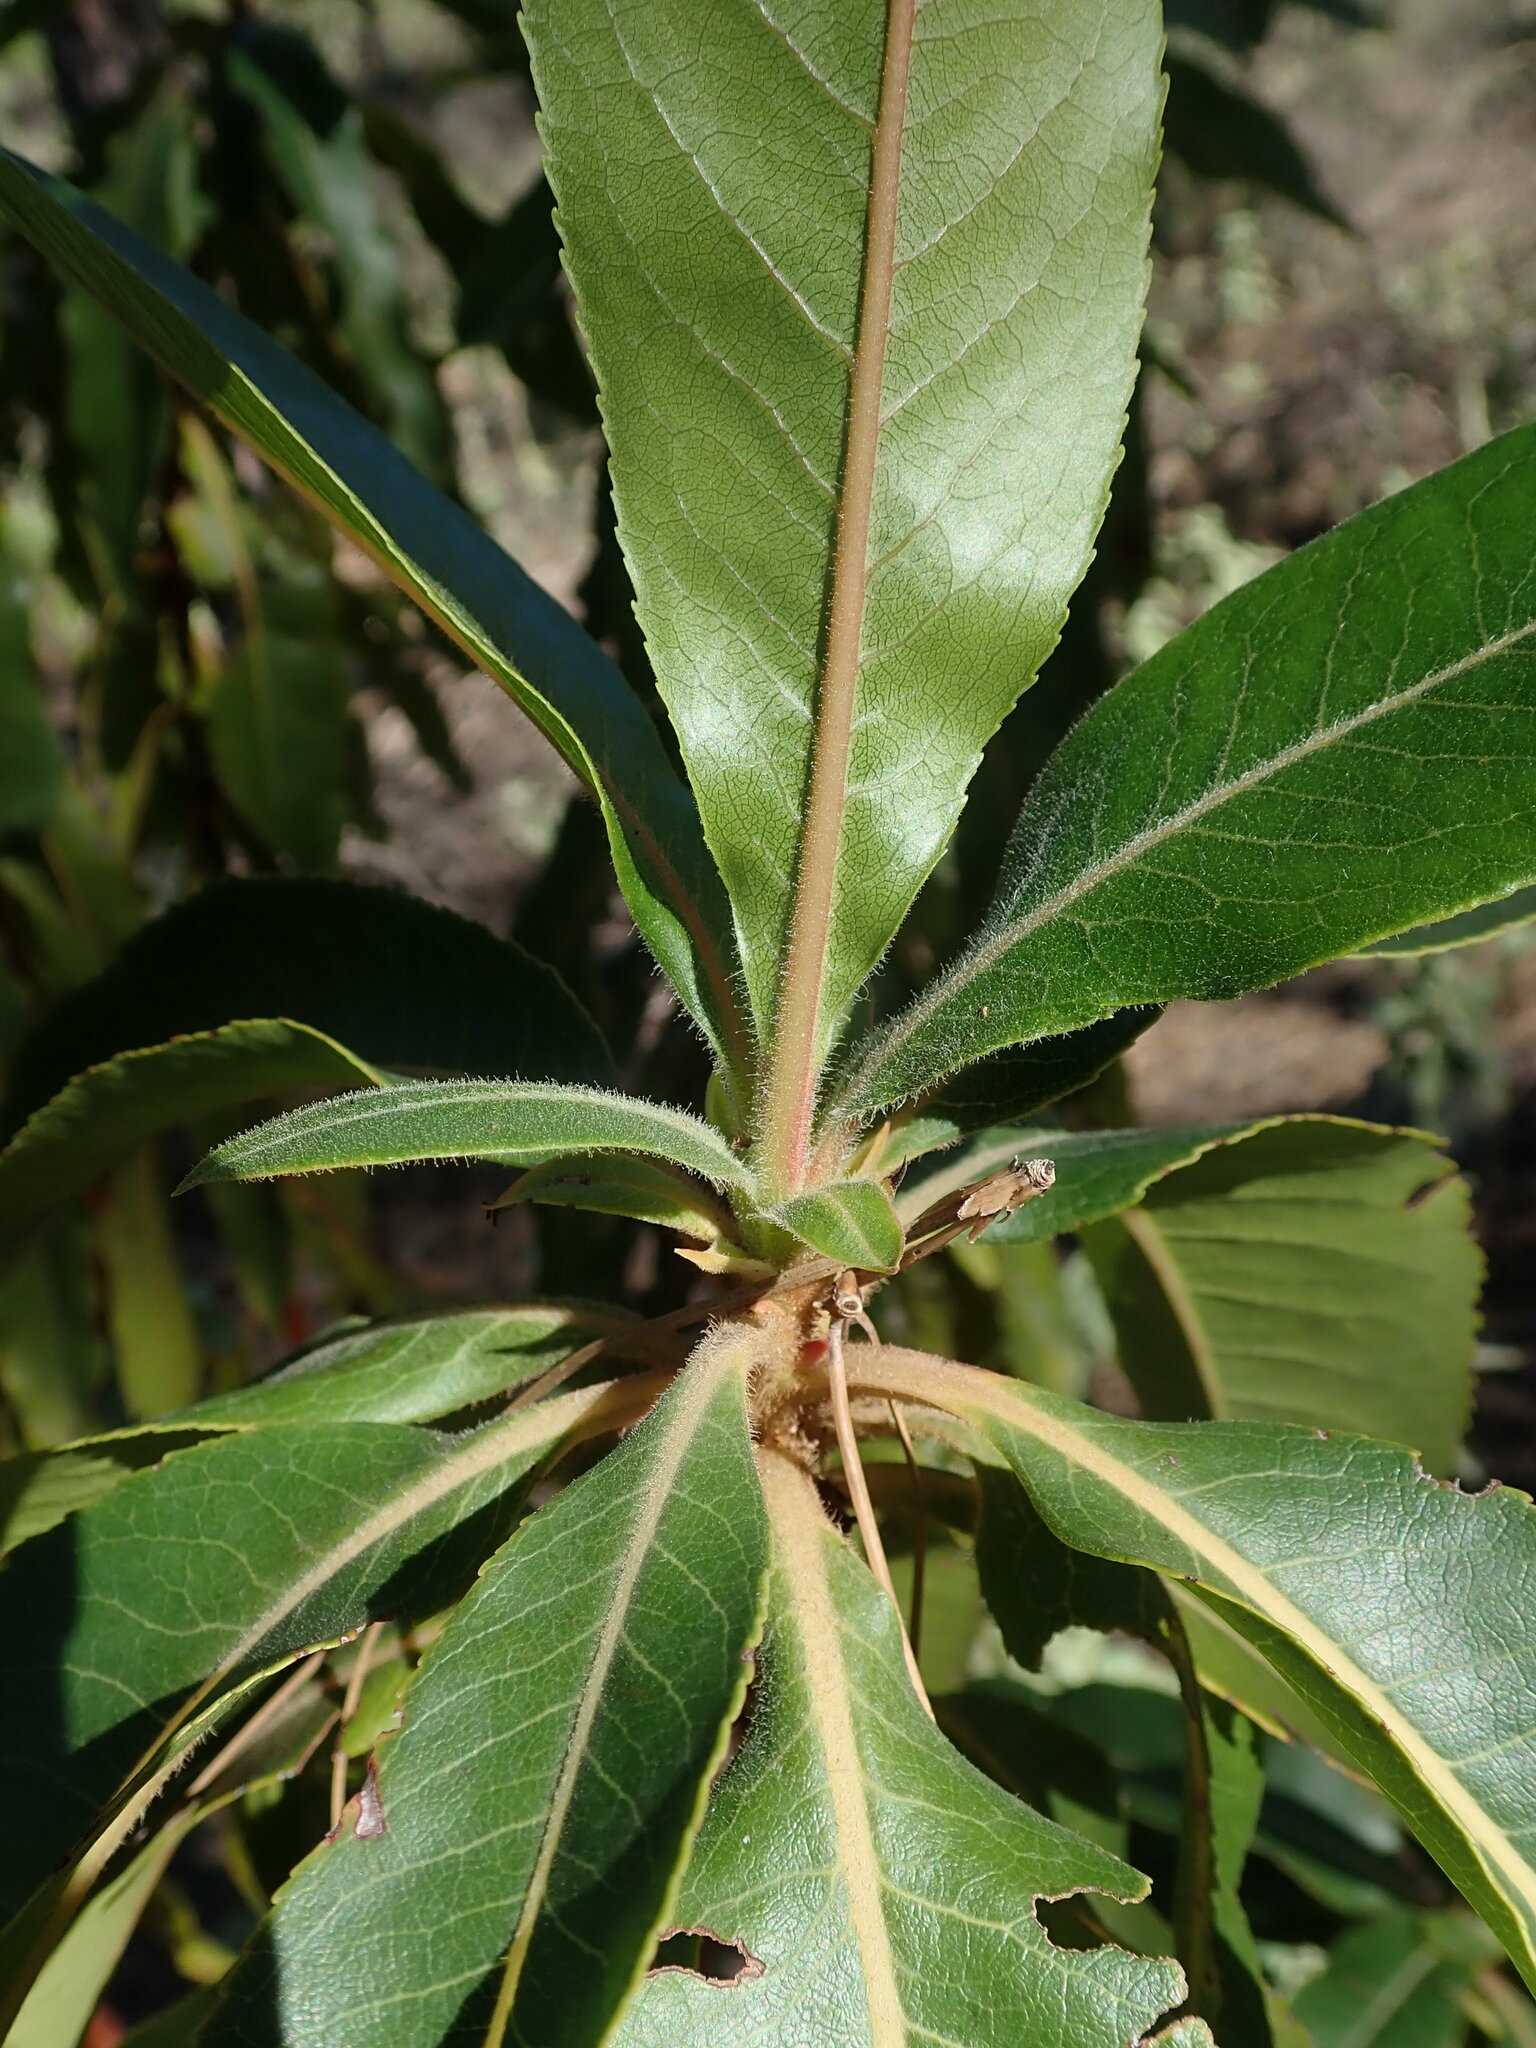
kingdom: Plantae
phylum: Tracheophyta
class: Magnoliopsida
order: Ericales
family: Ericaceae
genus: Arbutus
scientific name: Arbutus canariensis
